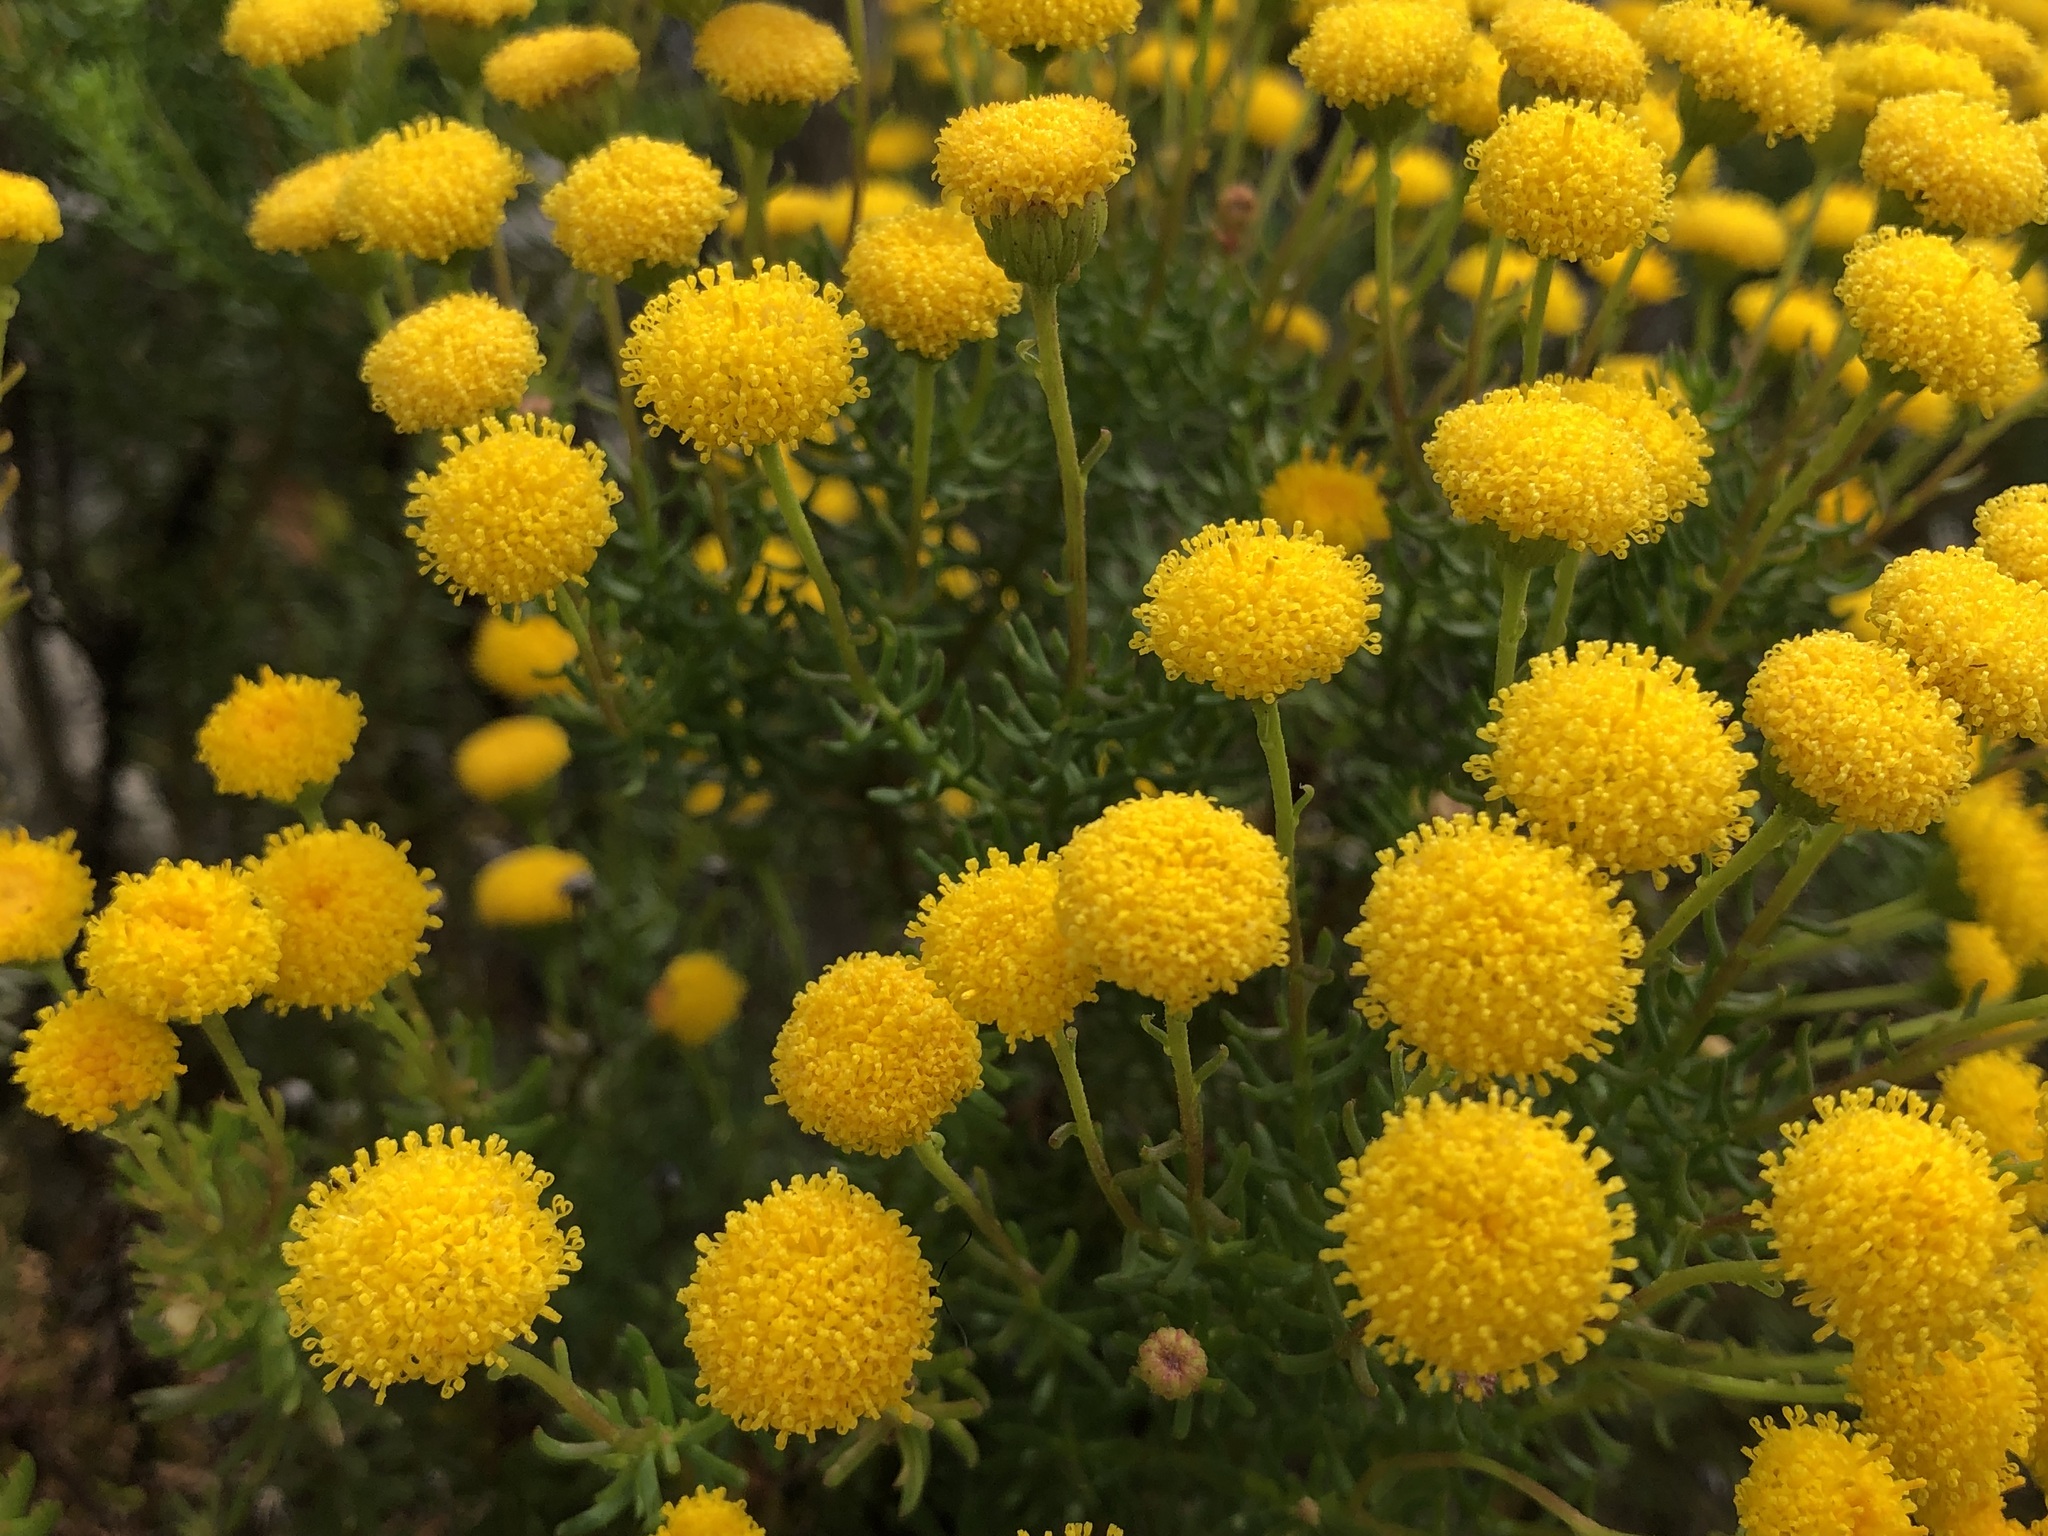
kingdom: Plantae
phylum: Tracheophyta
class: Magnoliopsida
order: Asterales
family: Asteraceae
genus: Chrysocoma
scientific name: Chrysocoma cernua
